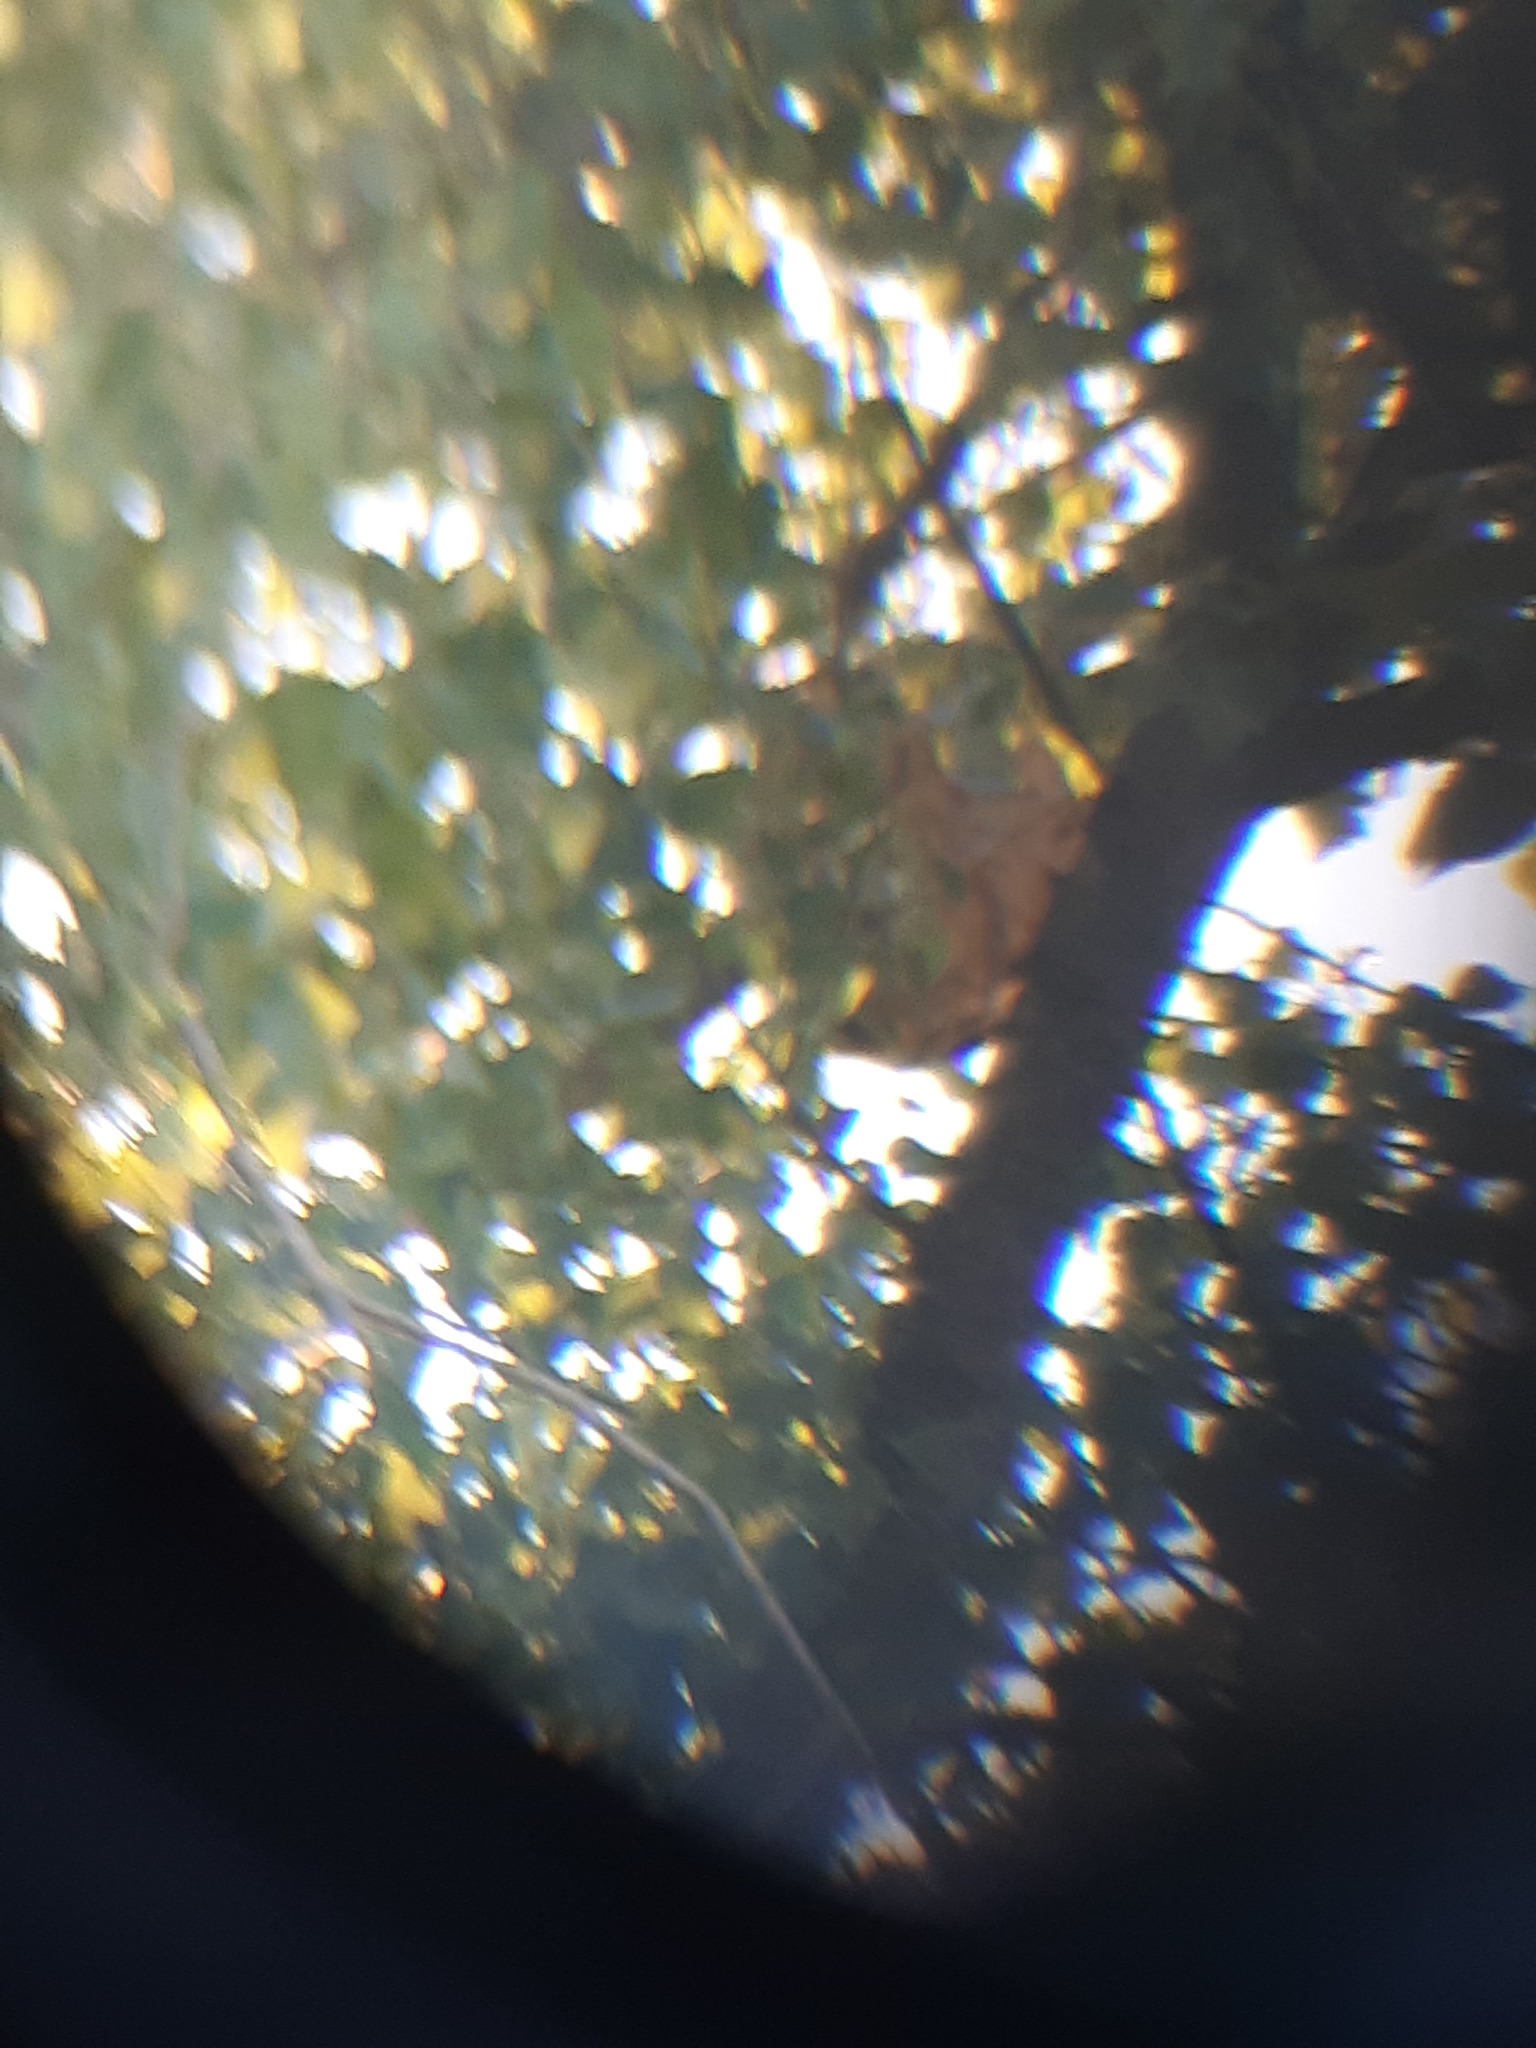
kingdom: Animalia
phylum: Arthropoda
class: Insecta
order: Hymenoptera
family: Vespidae
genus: Vespa
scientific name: Vespa velutina
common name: Asian hornet
